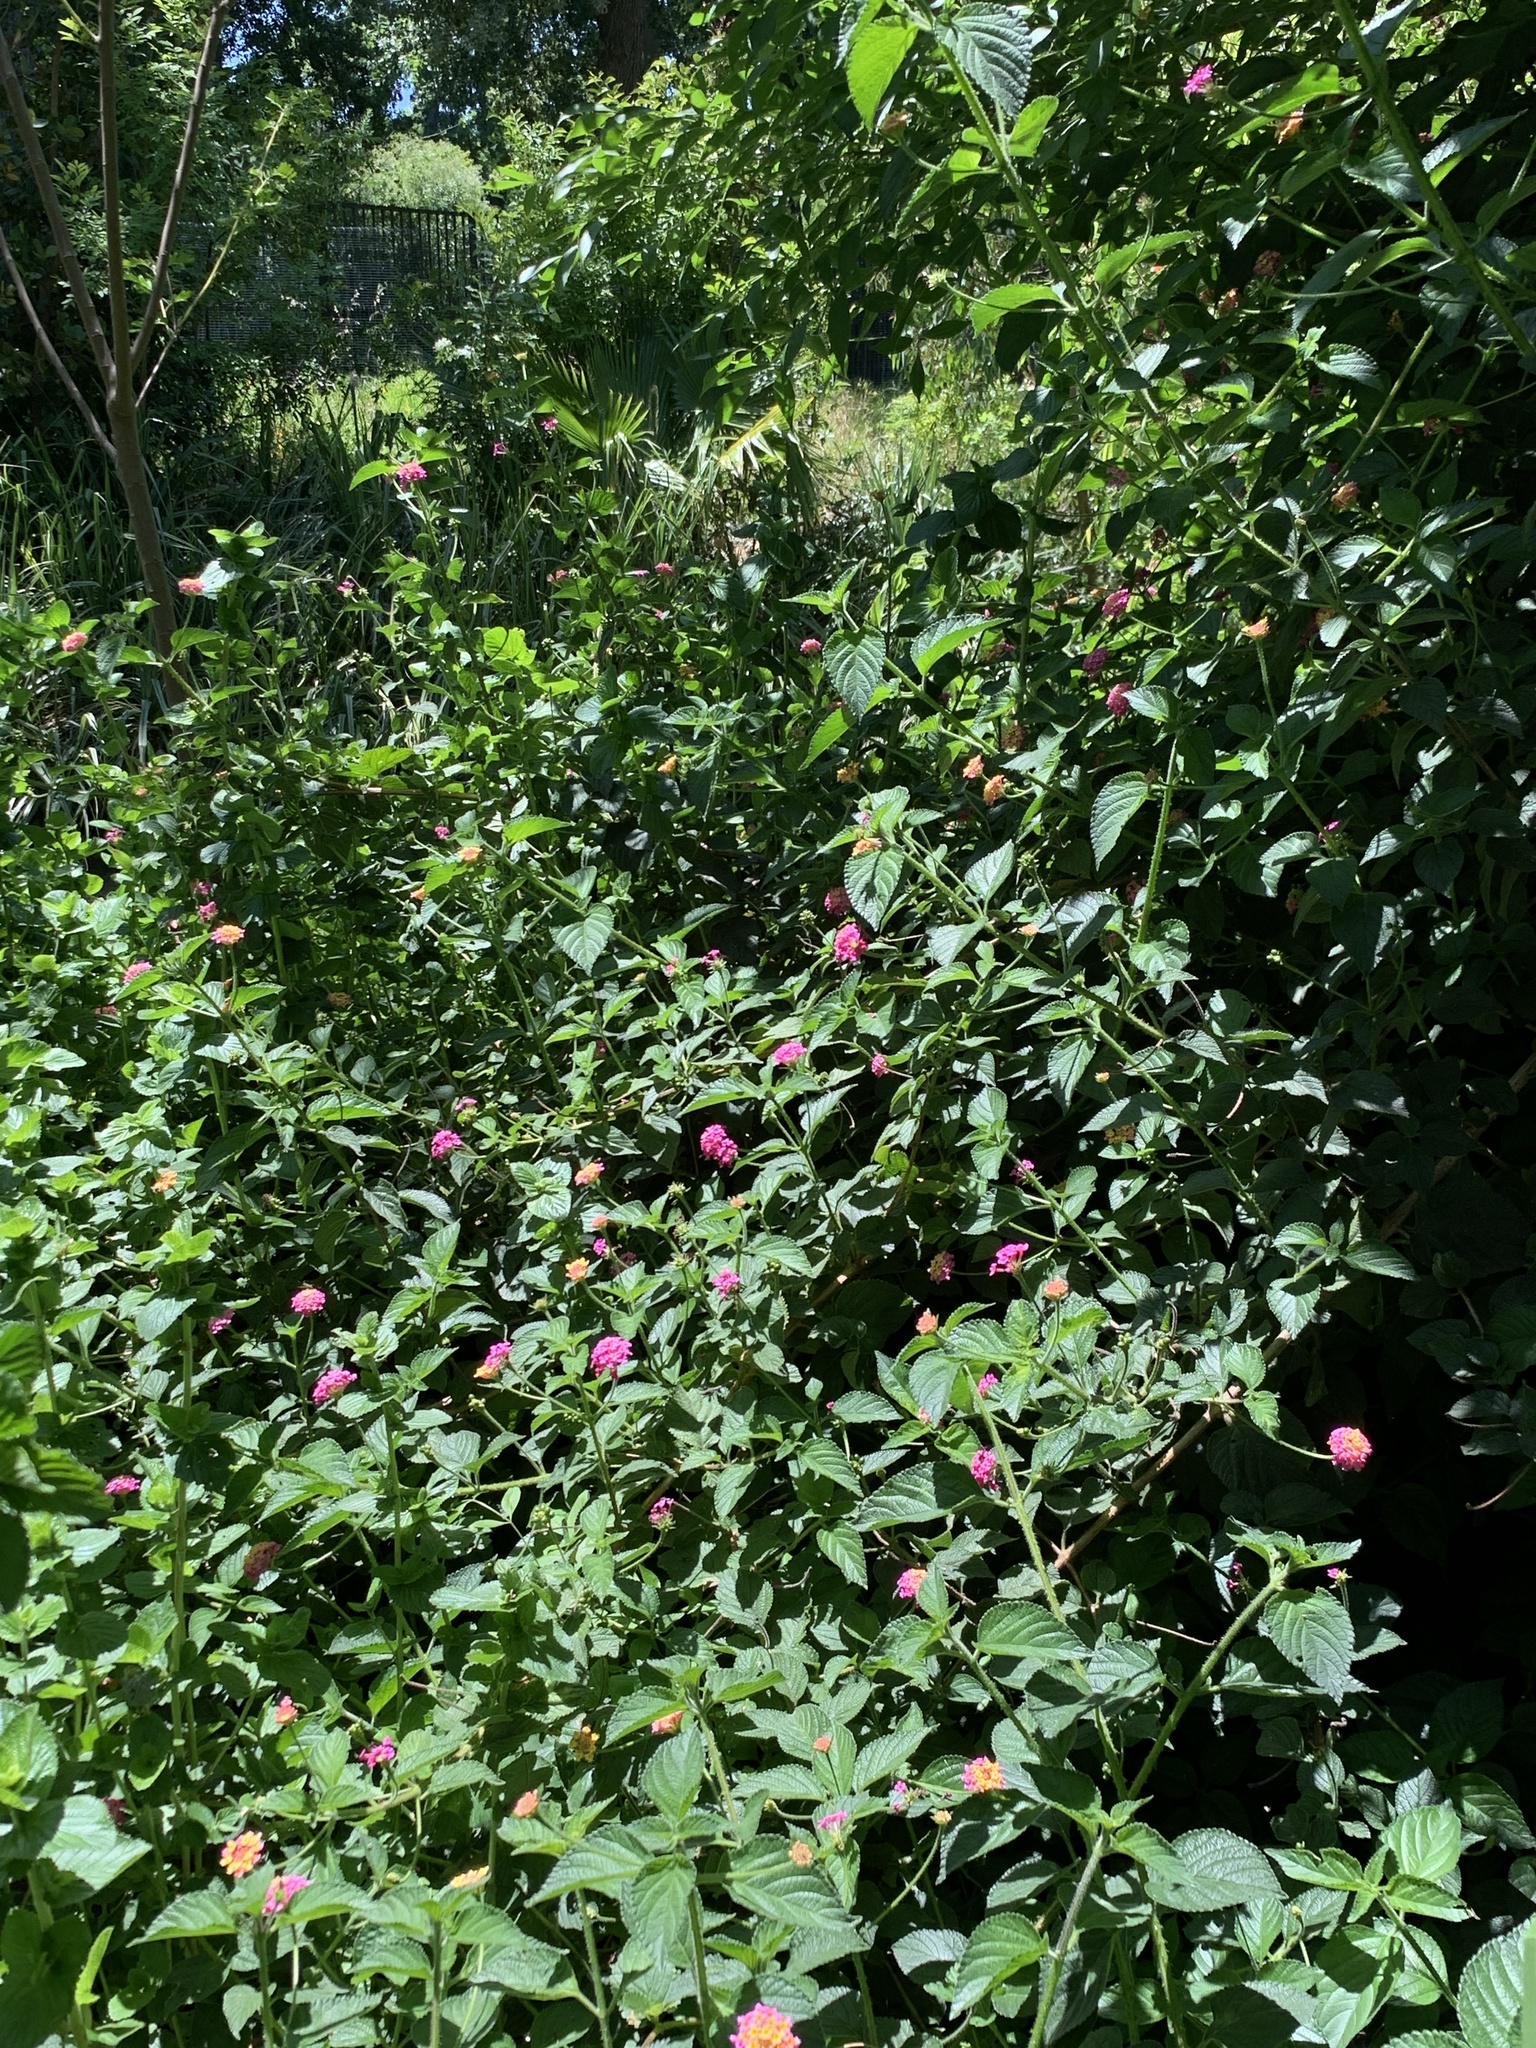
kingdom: Plantae
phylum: Tracheophyta
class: Magnoliopsida
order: Lamiales
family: Verbenaceae
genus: Lantana
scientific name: Lantana camara
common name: Lantana
